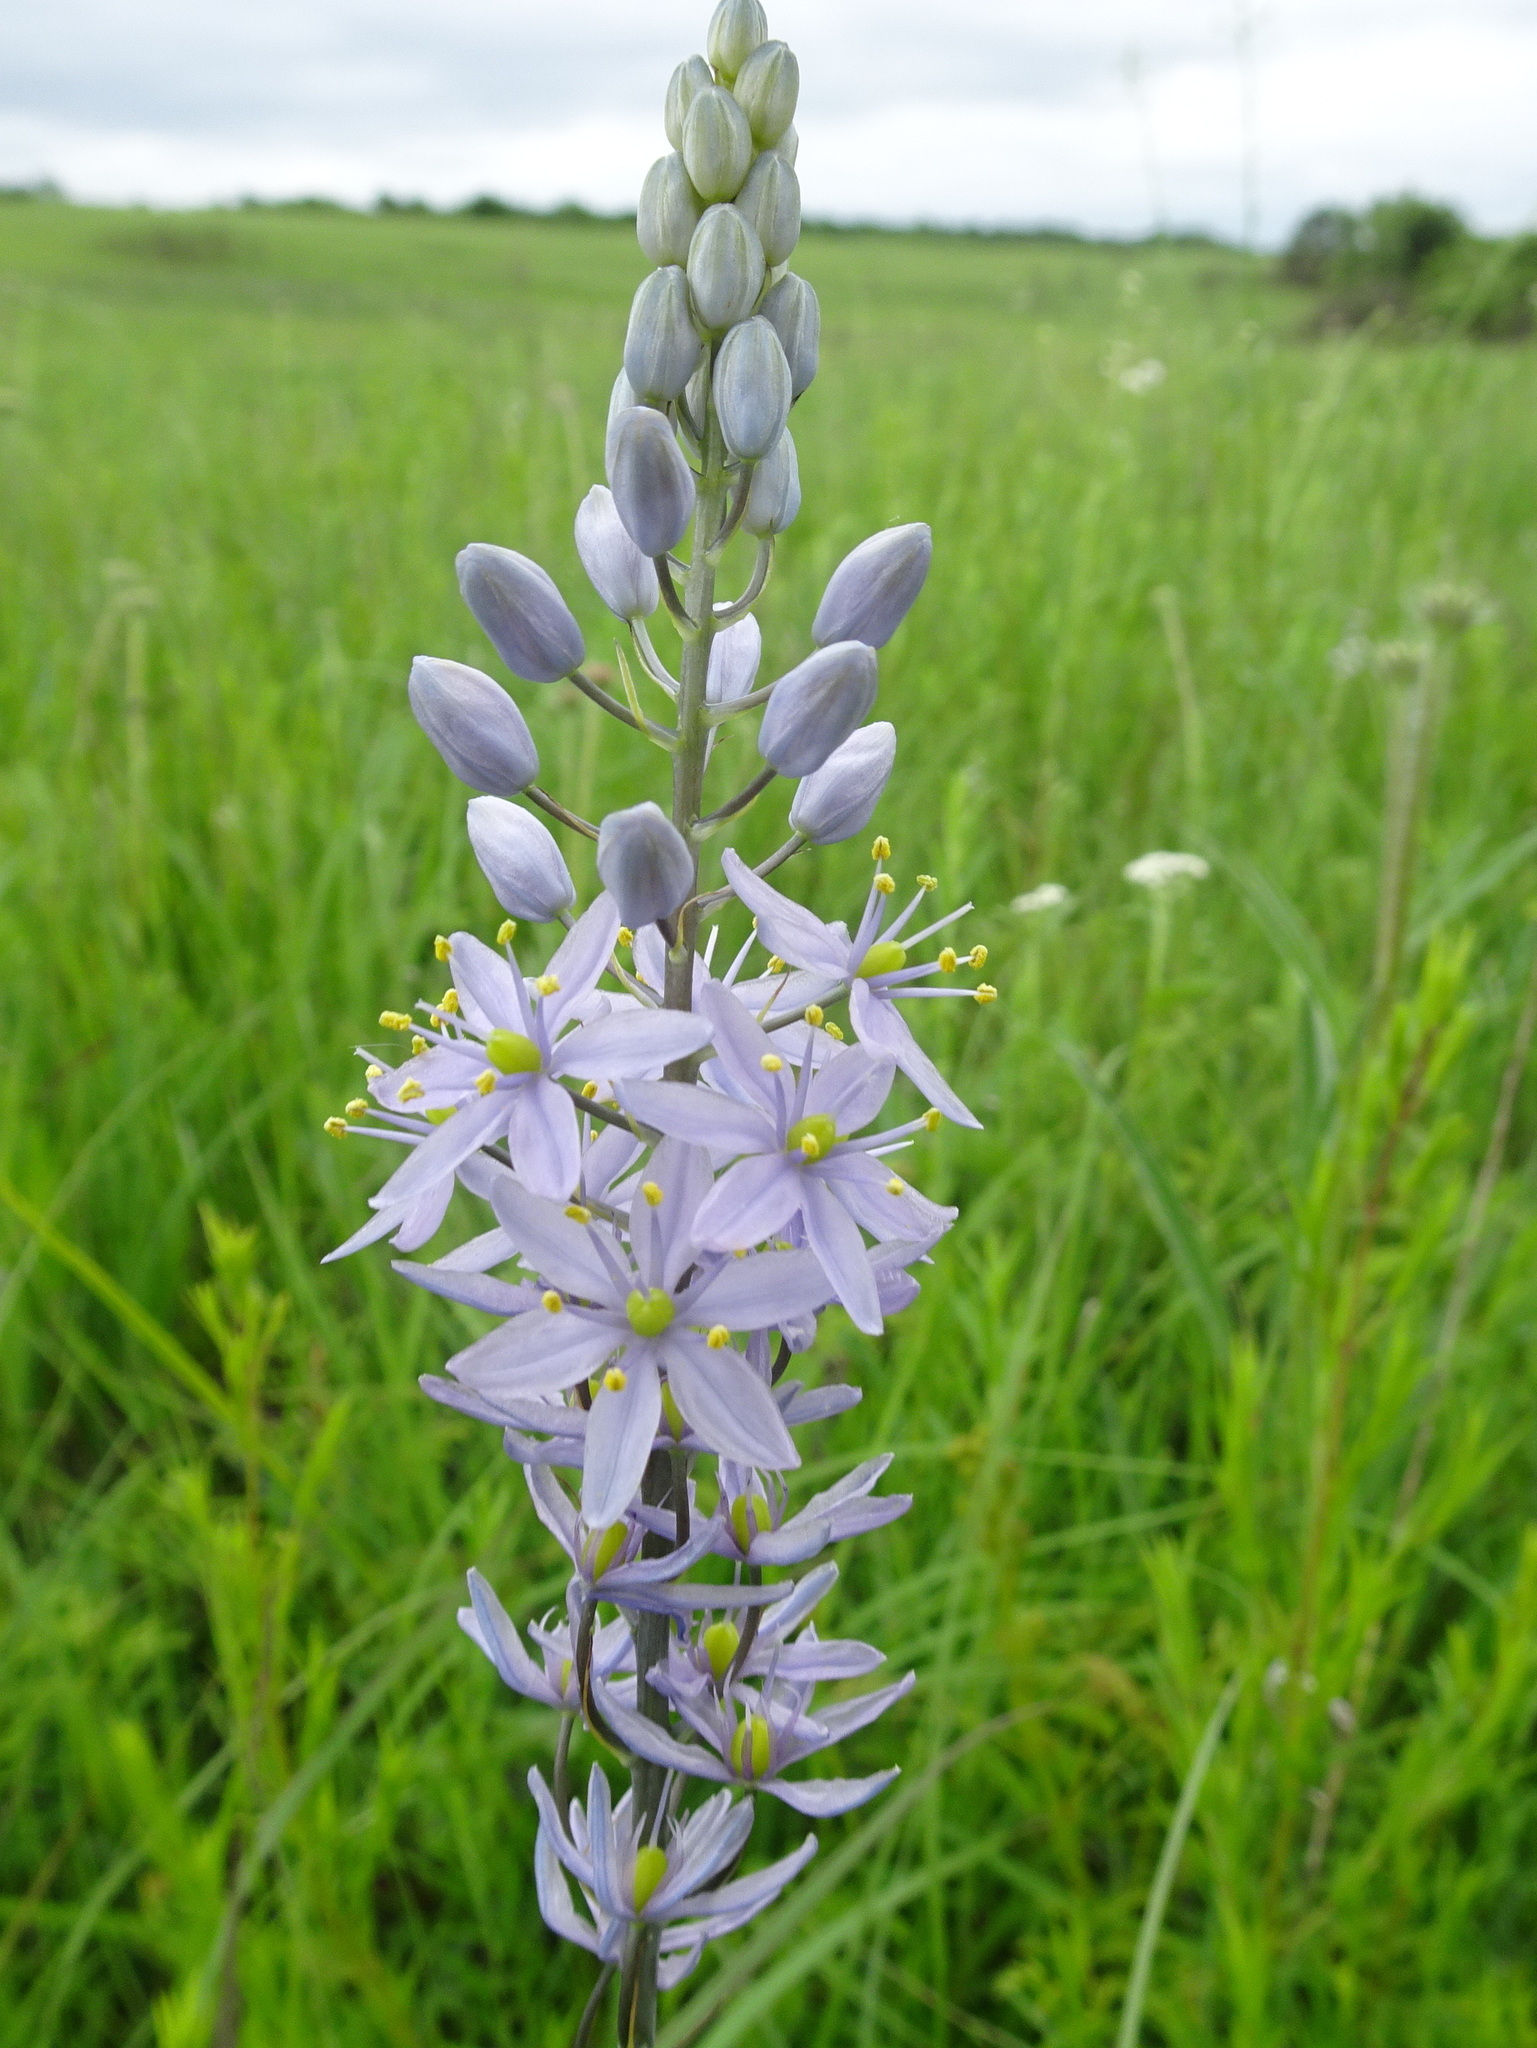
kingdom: Plantae
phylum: Tracheophyta
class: Liliopsida
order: Asparagales
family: Asparagaceae
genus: Camassia
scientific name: Camassia angusta
